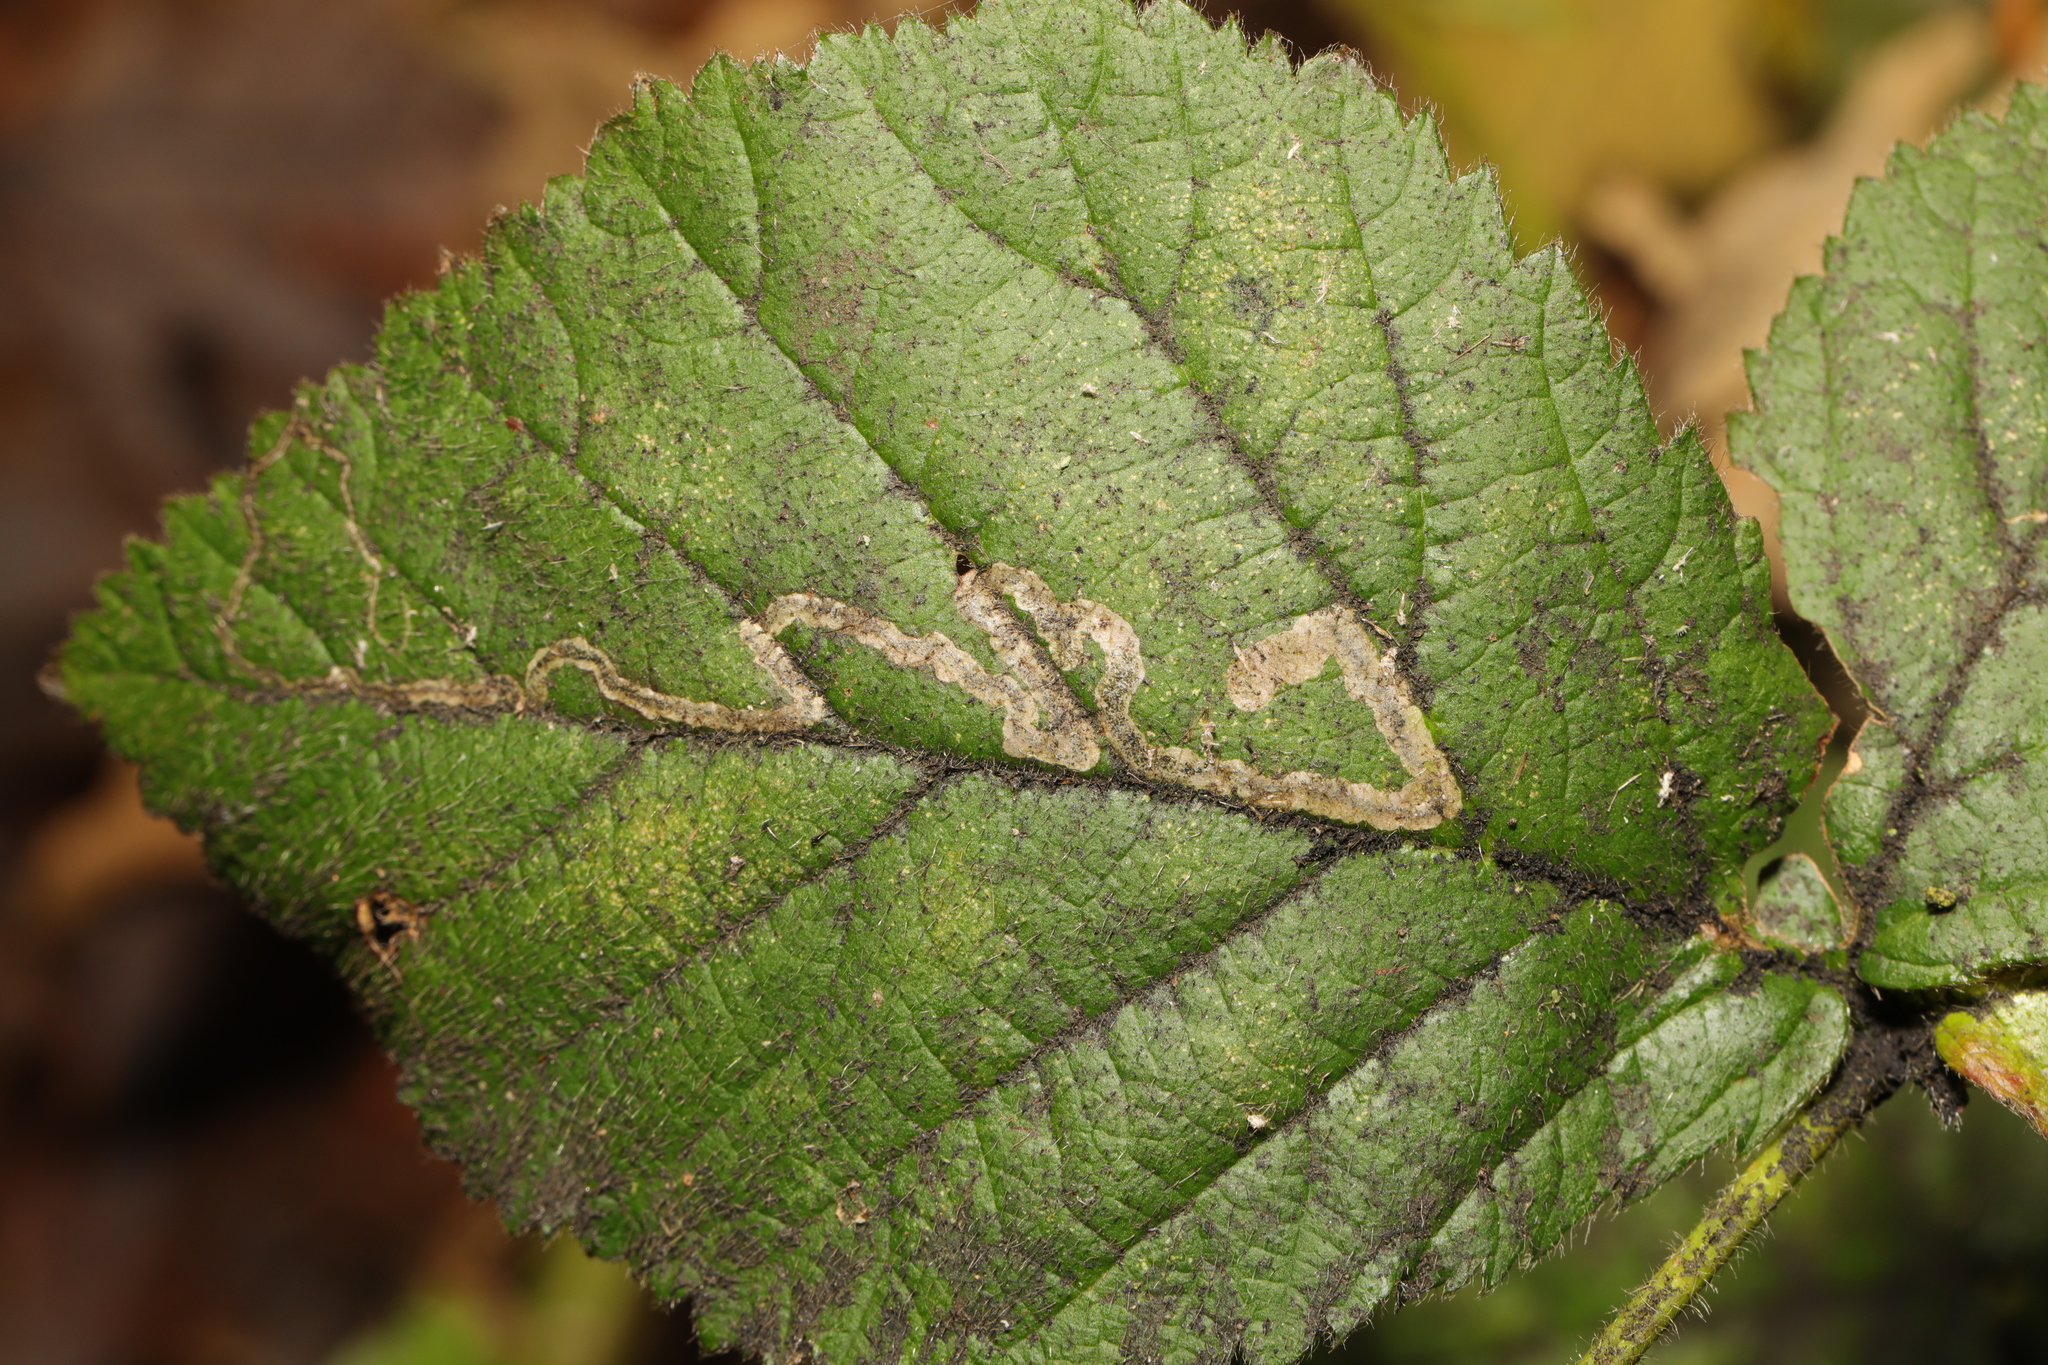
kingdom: Animalia
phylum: Arthropoda
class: Insecta
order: Lepidoptera
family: Nepticulidae
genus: Stigmella
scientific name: Stigmella aurella
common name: Golden pigmy
